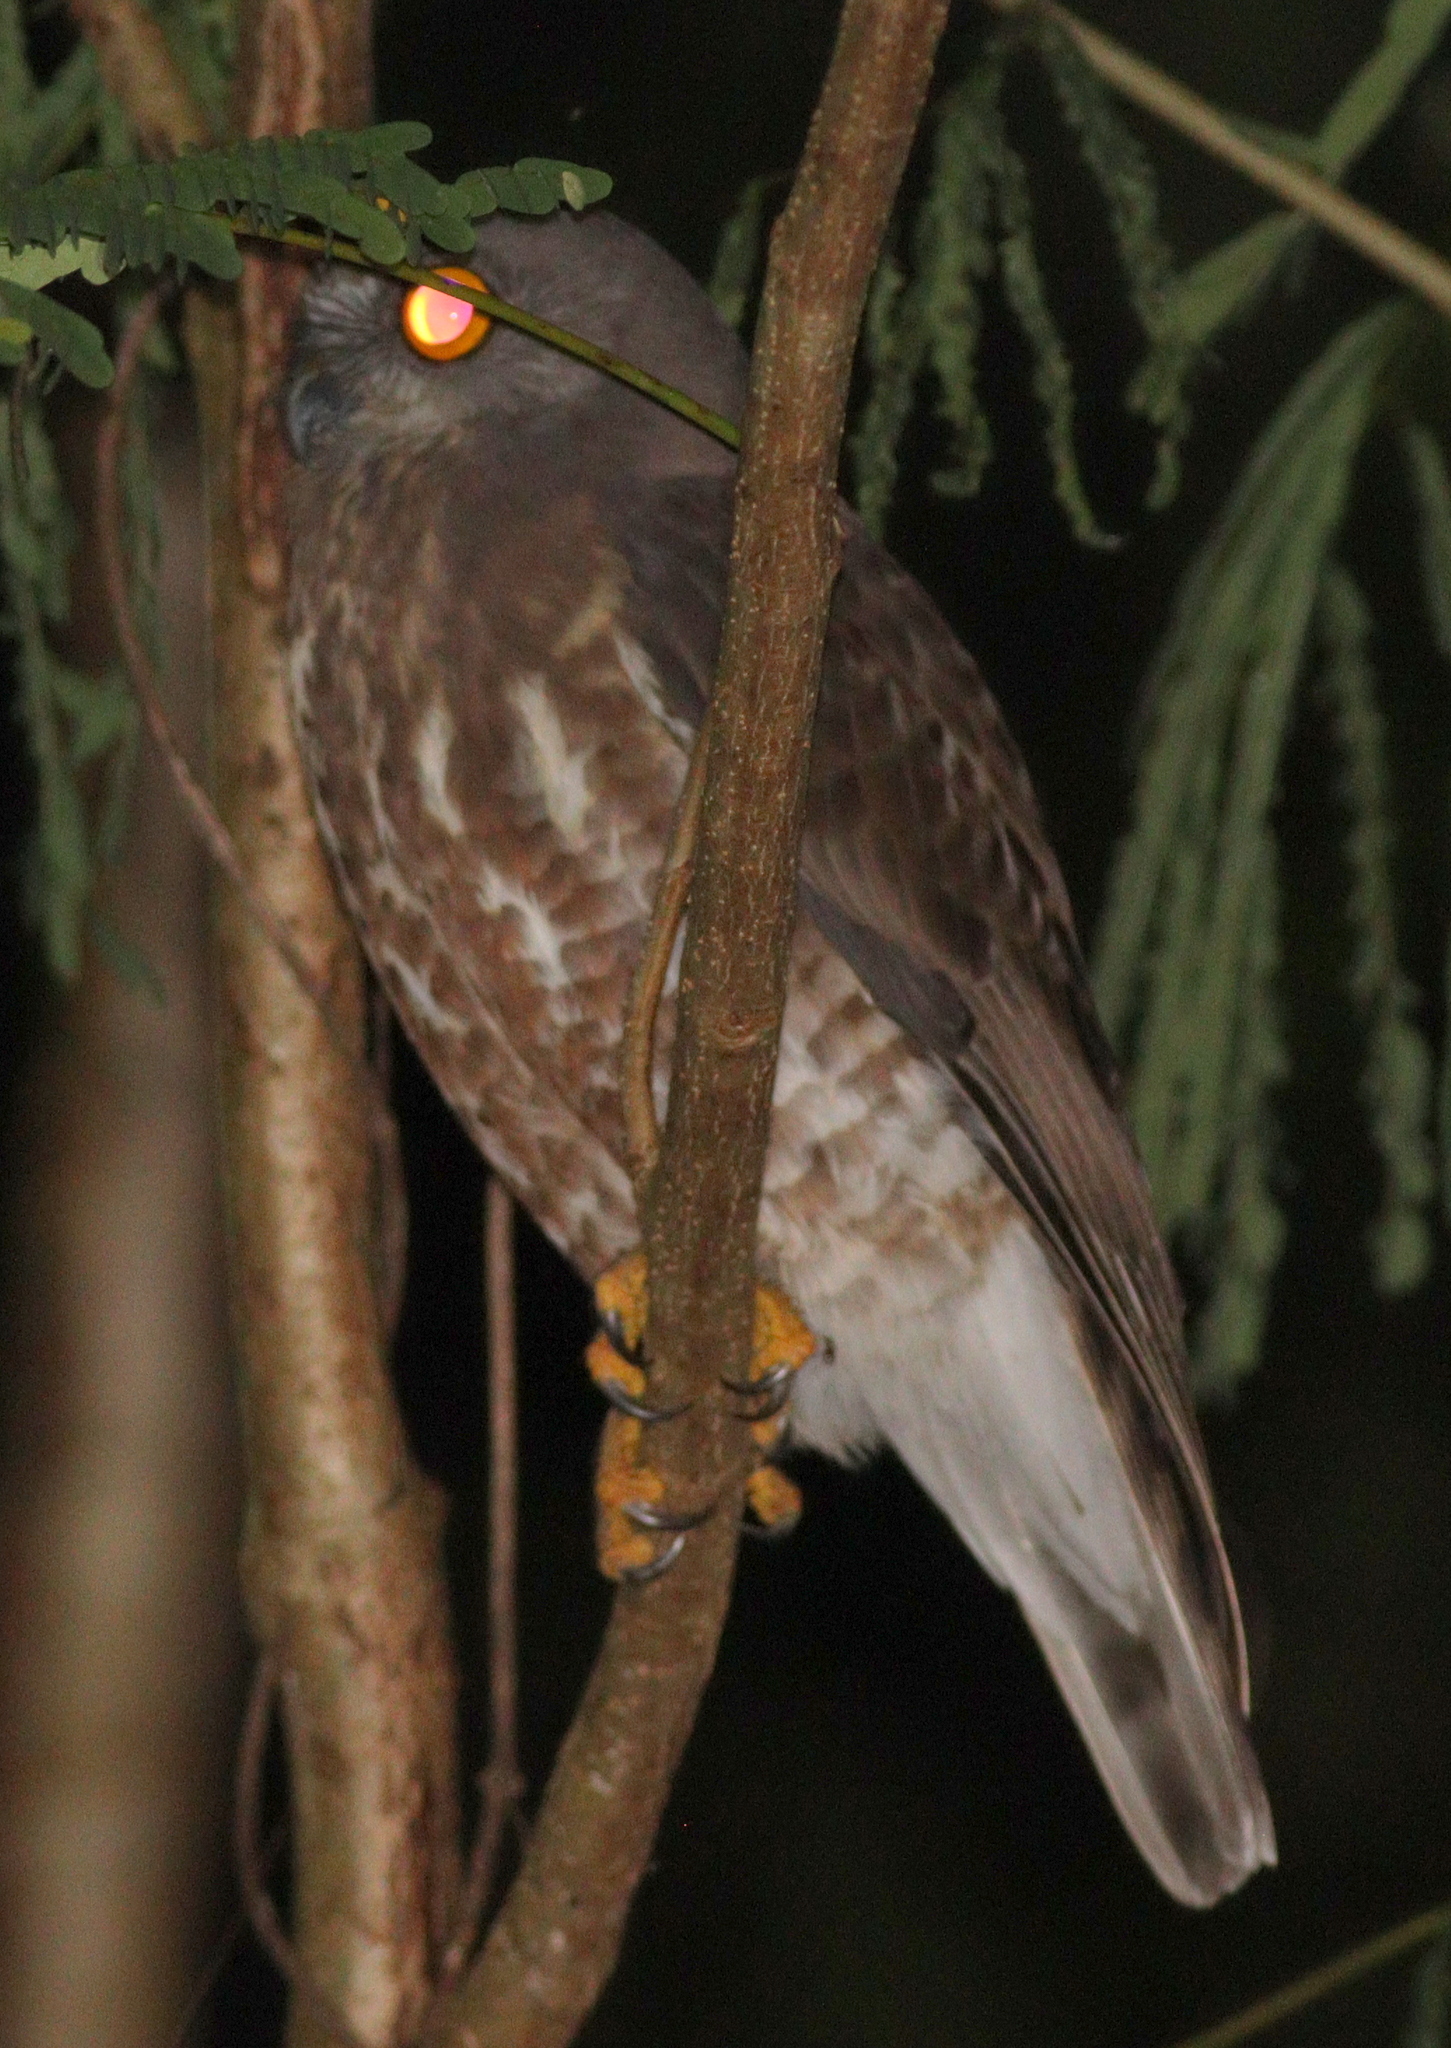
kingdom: Animalia
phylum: Chordata
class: Aves
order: Strigiformes
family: Strigidae
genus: Ninox
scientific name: Ninox scutulata
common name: Brown hawk-owl
